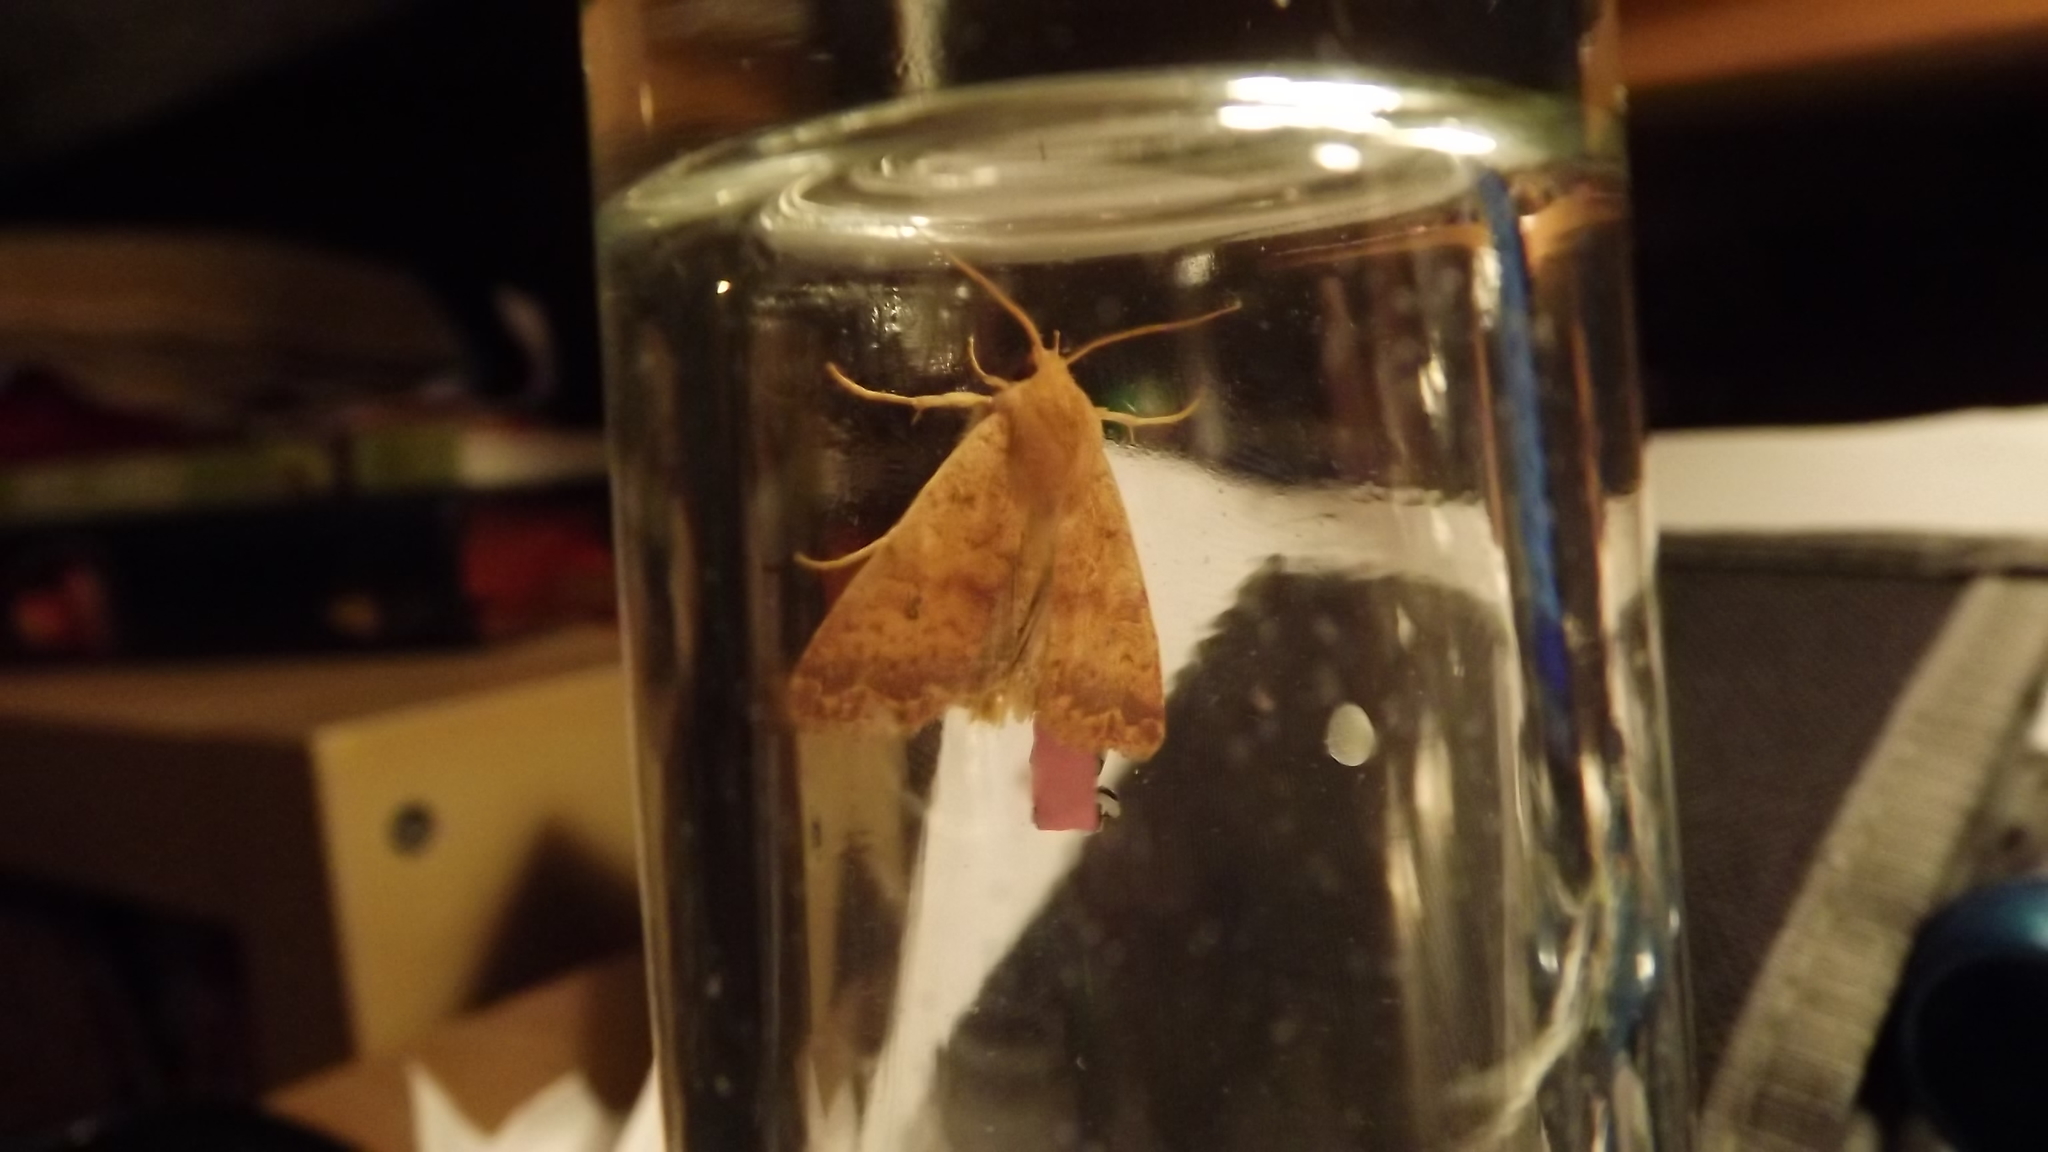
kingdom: Animalia
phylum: Arthropoda
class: Insecta
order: Lepidoptera
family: Noctuidae
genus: Agrochola
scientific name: Agrochola bicolorago
